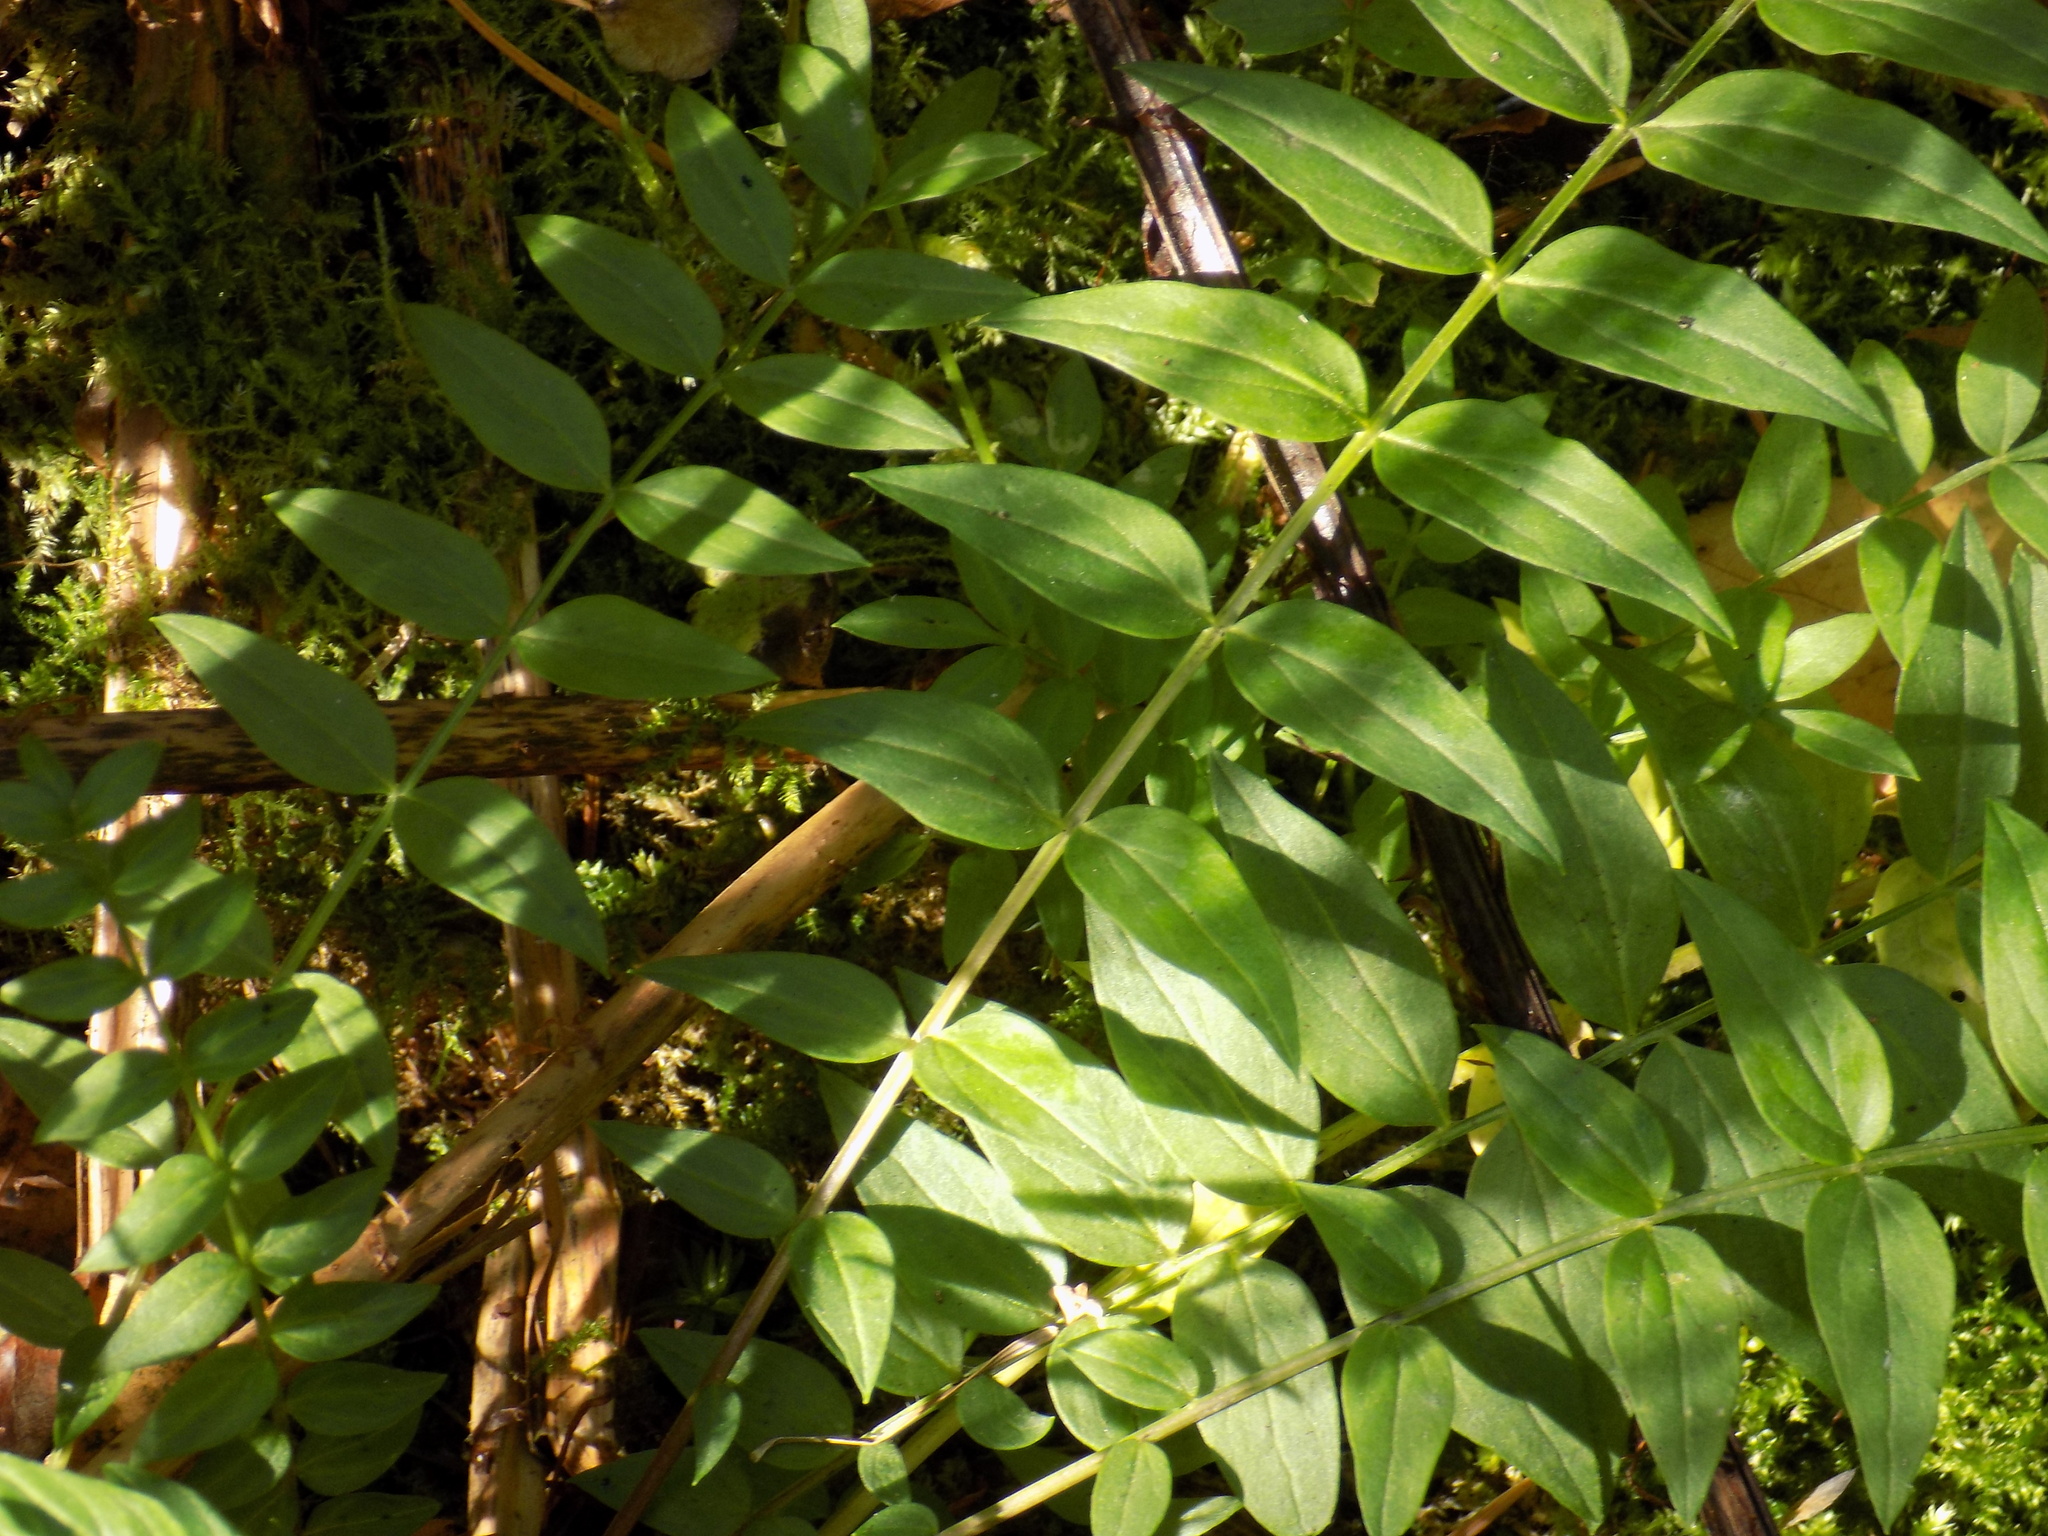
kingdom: Plantae
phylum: Tracheophyta
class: Magnoliopsida
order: Ericales
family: Polemoniaceae
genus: Polemonium
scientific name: Polemonium caeruleum
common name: Jacob's-ladder
